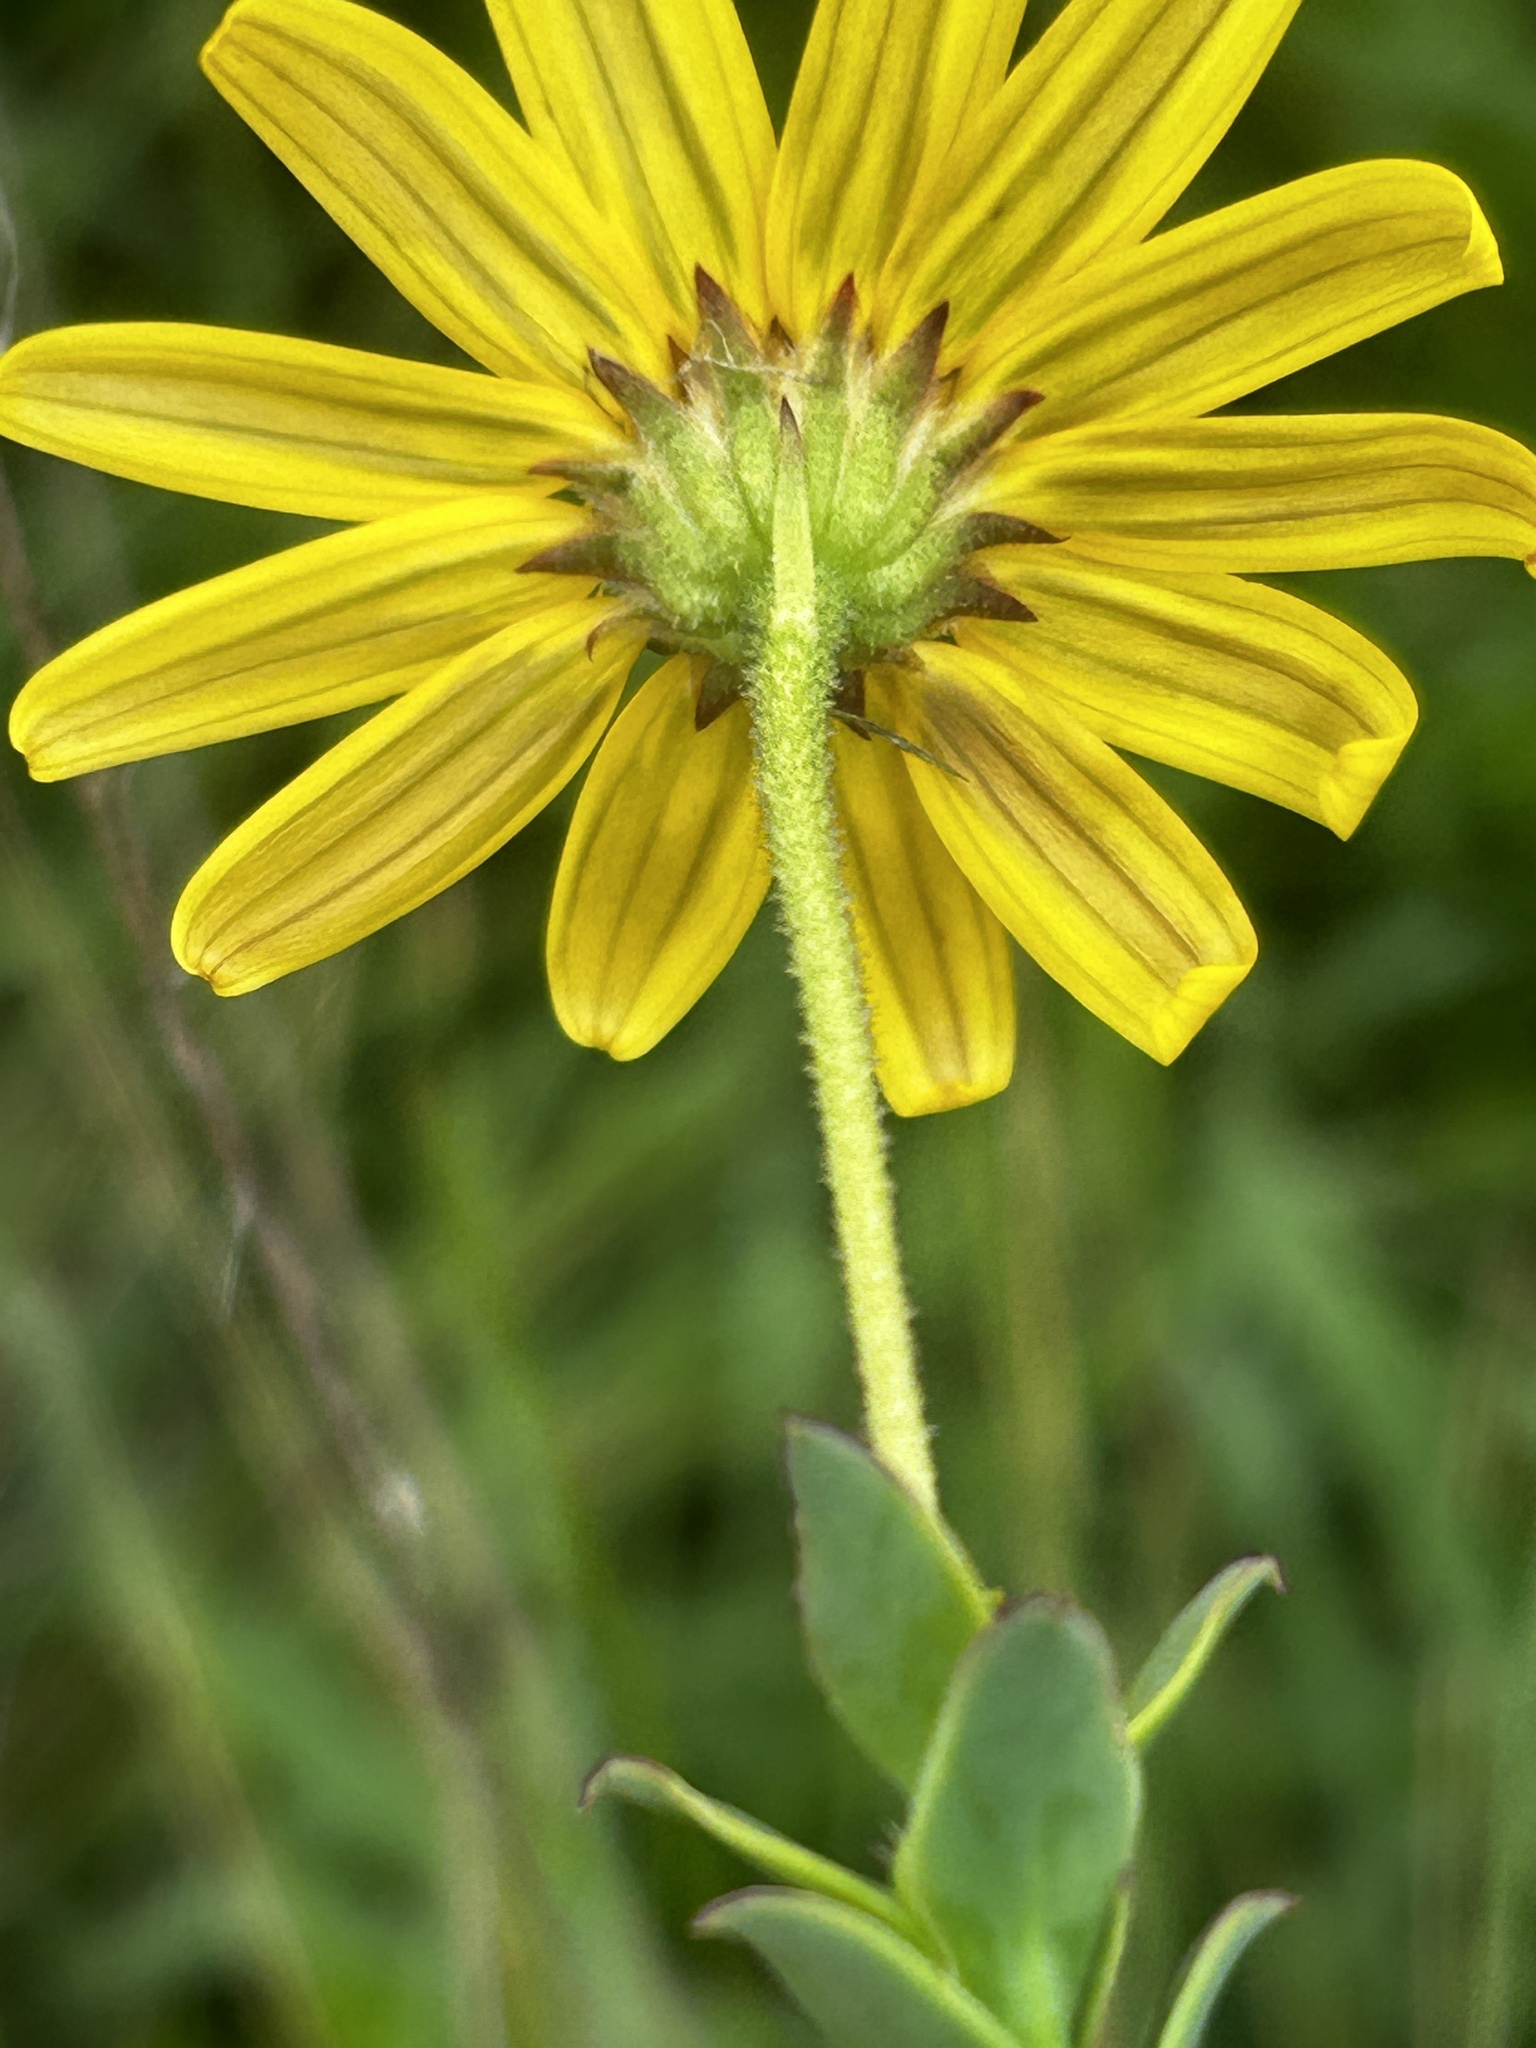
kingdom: Plantae
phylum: Tracheophyta
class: Magnoliopsida
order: Asterales
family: Asteraceae
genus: Osteospermum
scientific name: Osteospermum polygaloides
